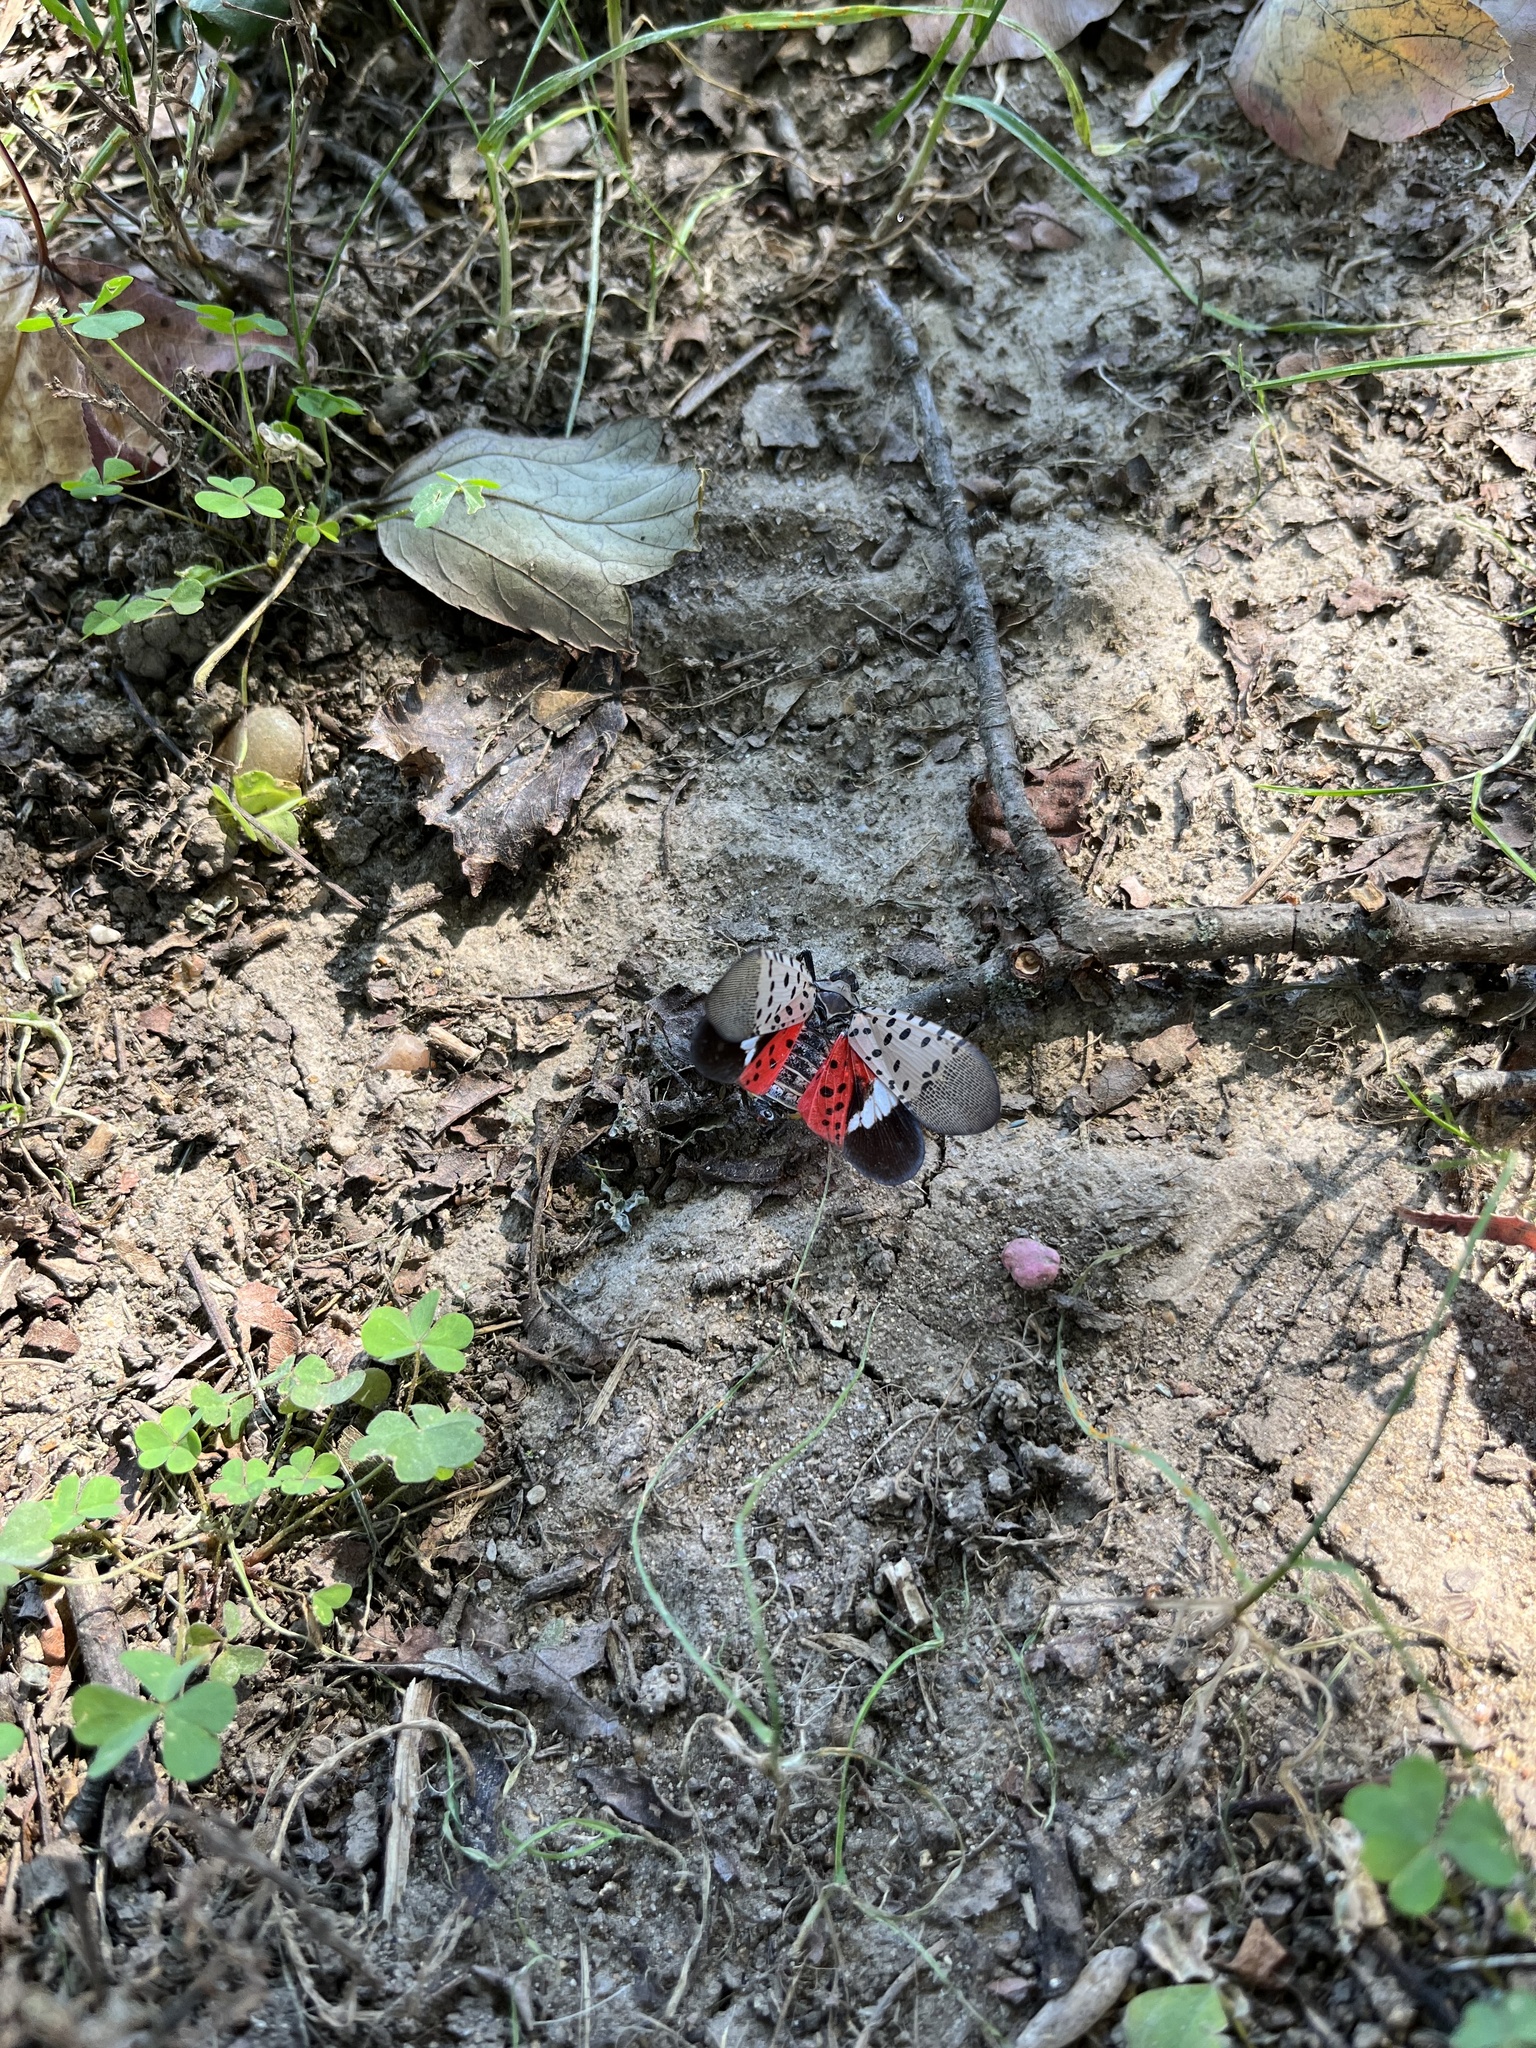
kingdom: Animalia
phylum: Arthropoda
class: Insecta
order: Hemiptera
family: Fulgoridae
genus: Lycorma
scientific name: Lycorma delicatula
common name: Spotted lanternfly
